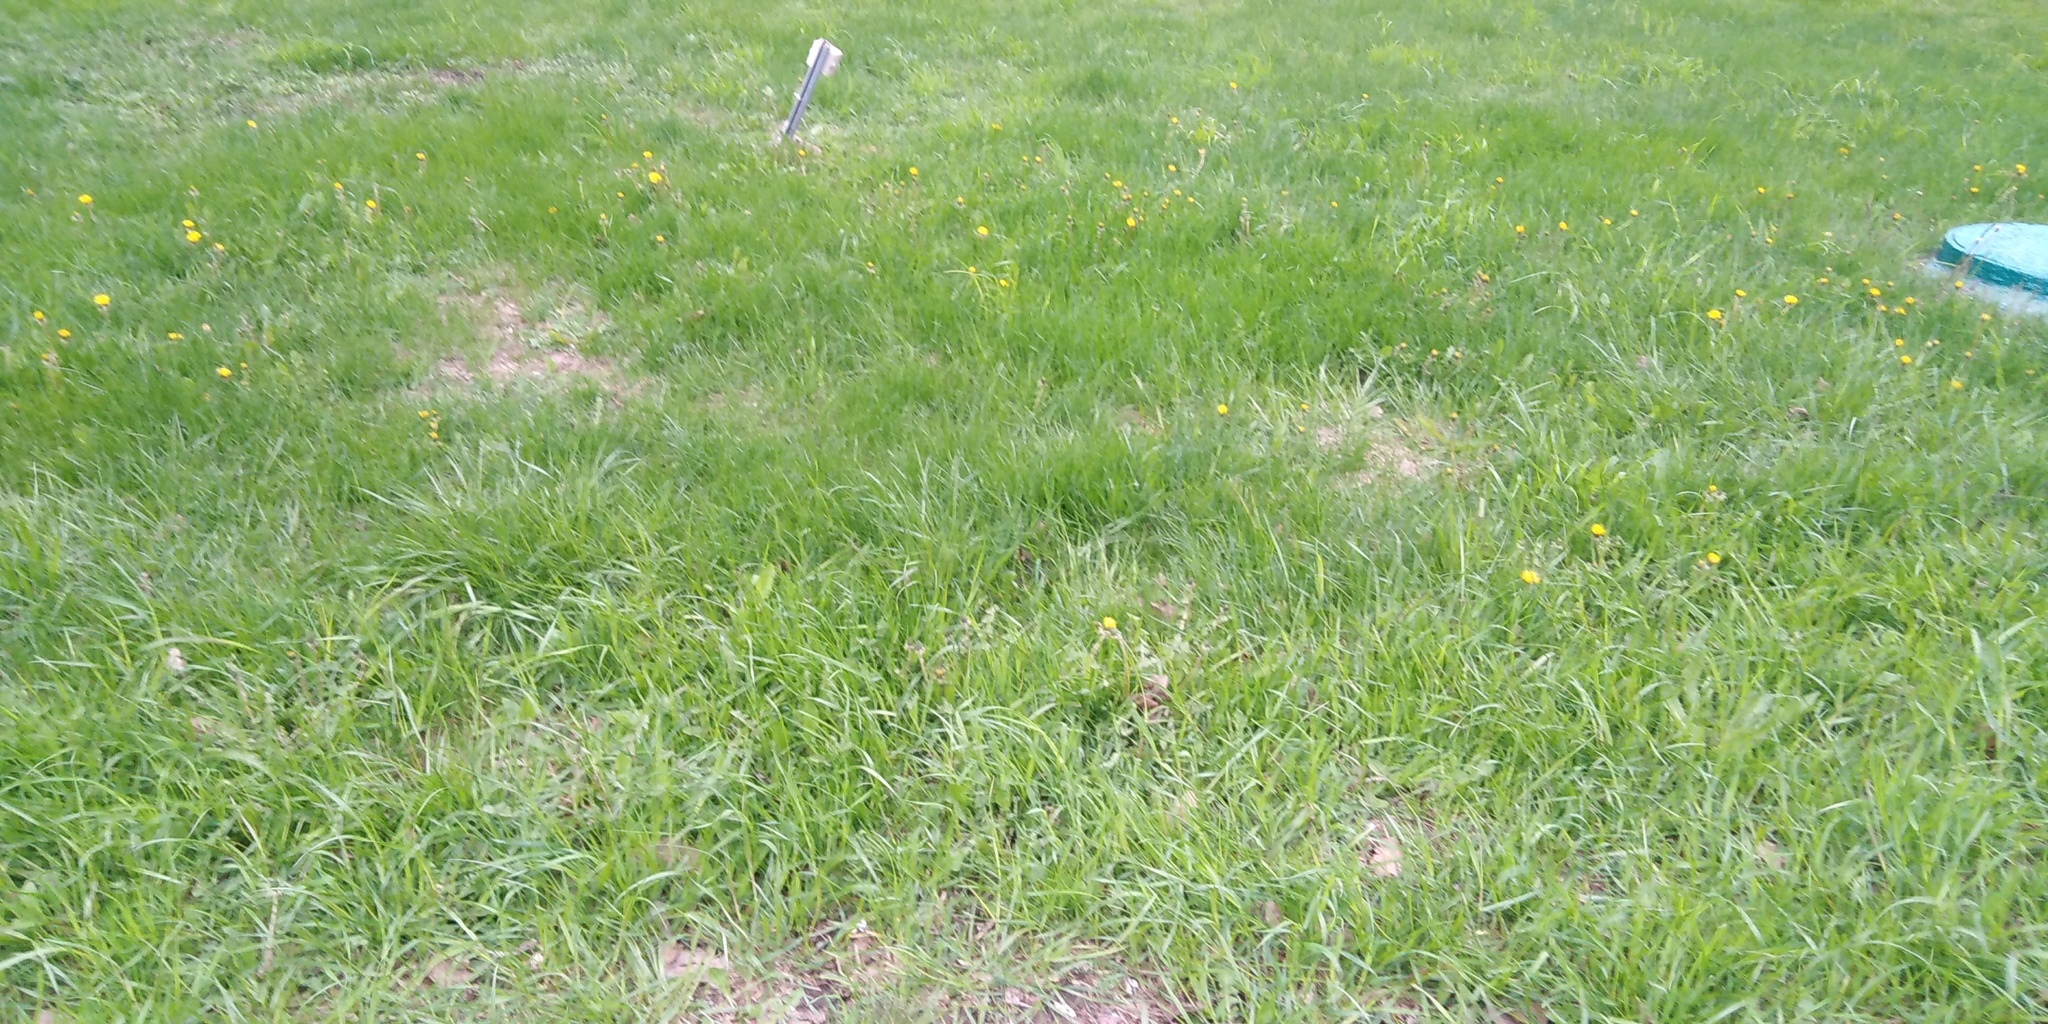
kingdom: Plantae
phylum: Tracheophyta
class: Magnoliopsida
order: Asterales
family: Asteraceae
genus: Taraxacum
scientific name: Taraxacum officinale
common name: Common dandelion
